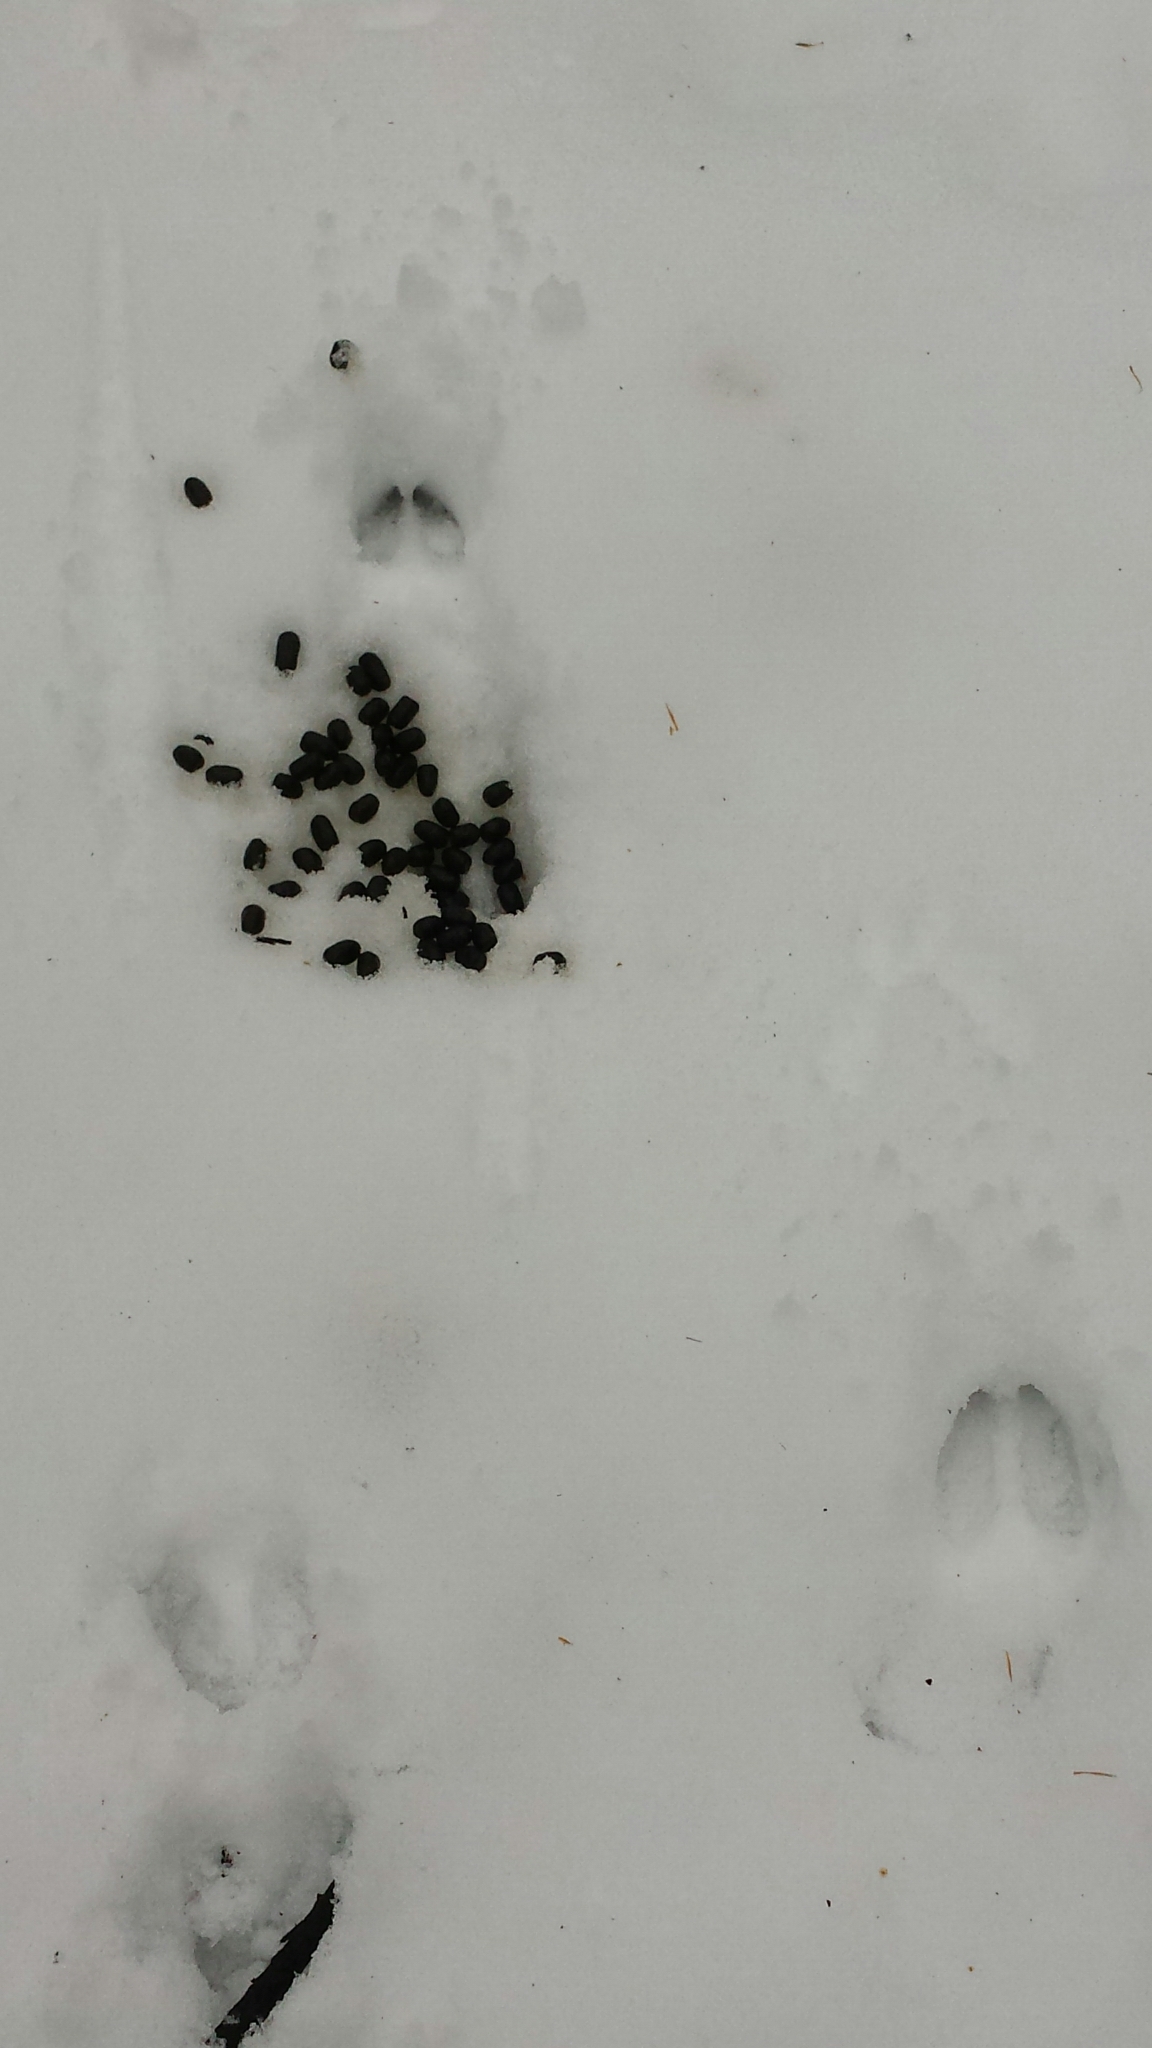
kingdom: Animalia
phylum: Chordata
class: Mammalia
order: Artiodactyla
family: Cervidae
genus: Odocoileus
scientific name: Odocoileus virginianus
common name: White-tailed deer
